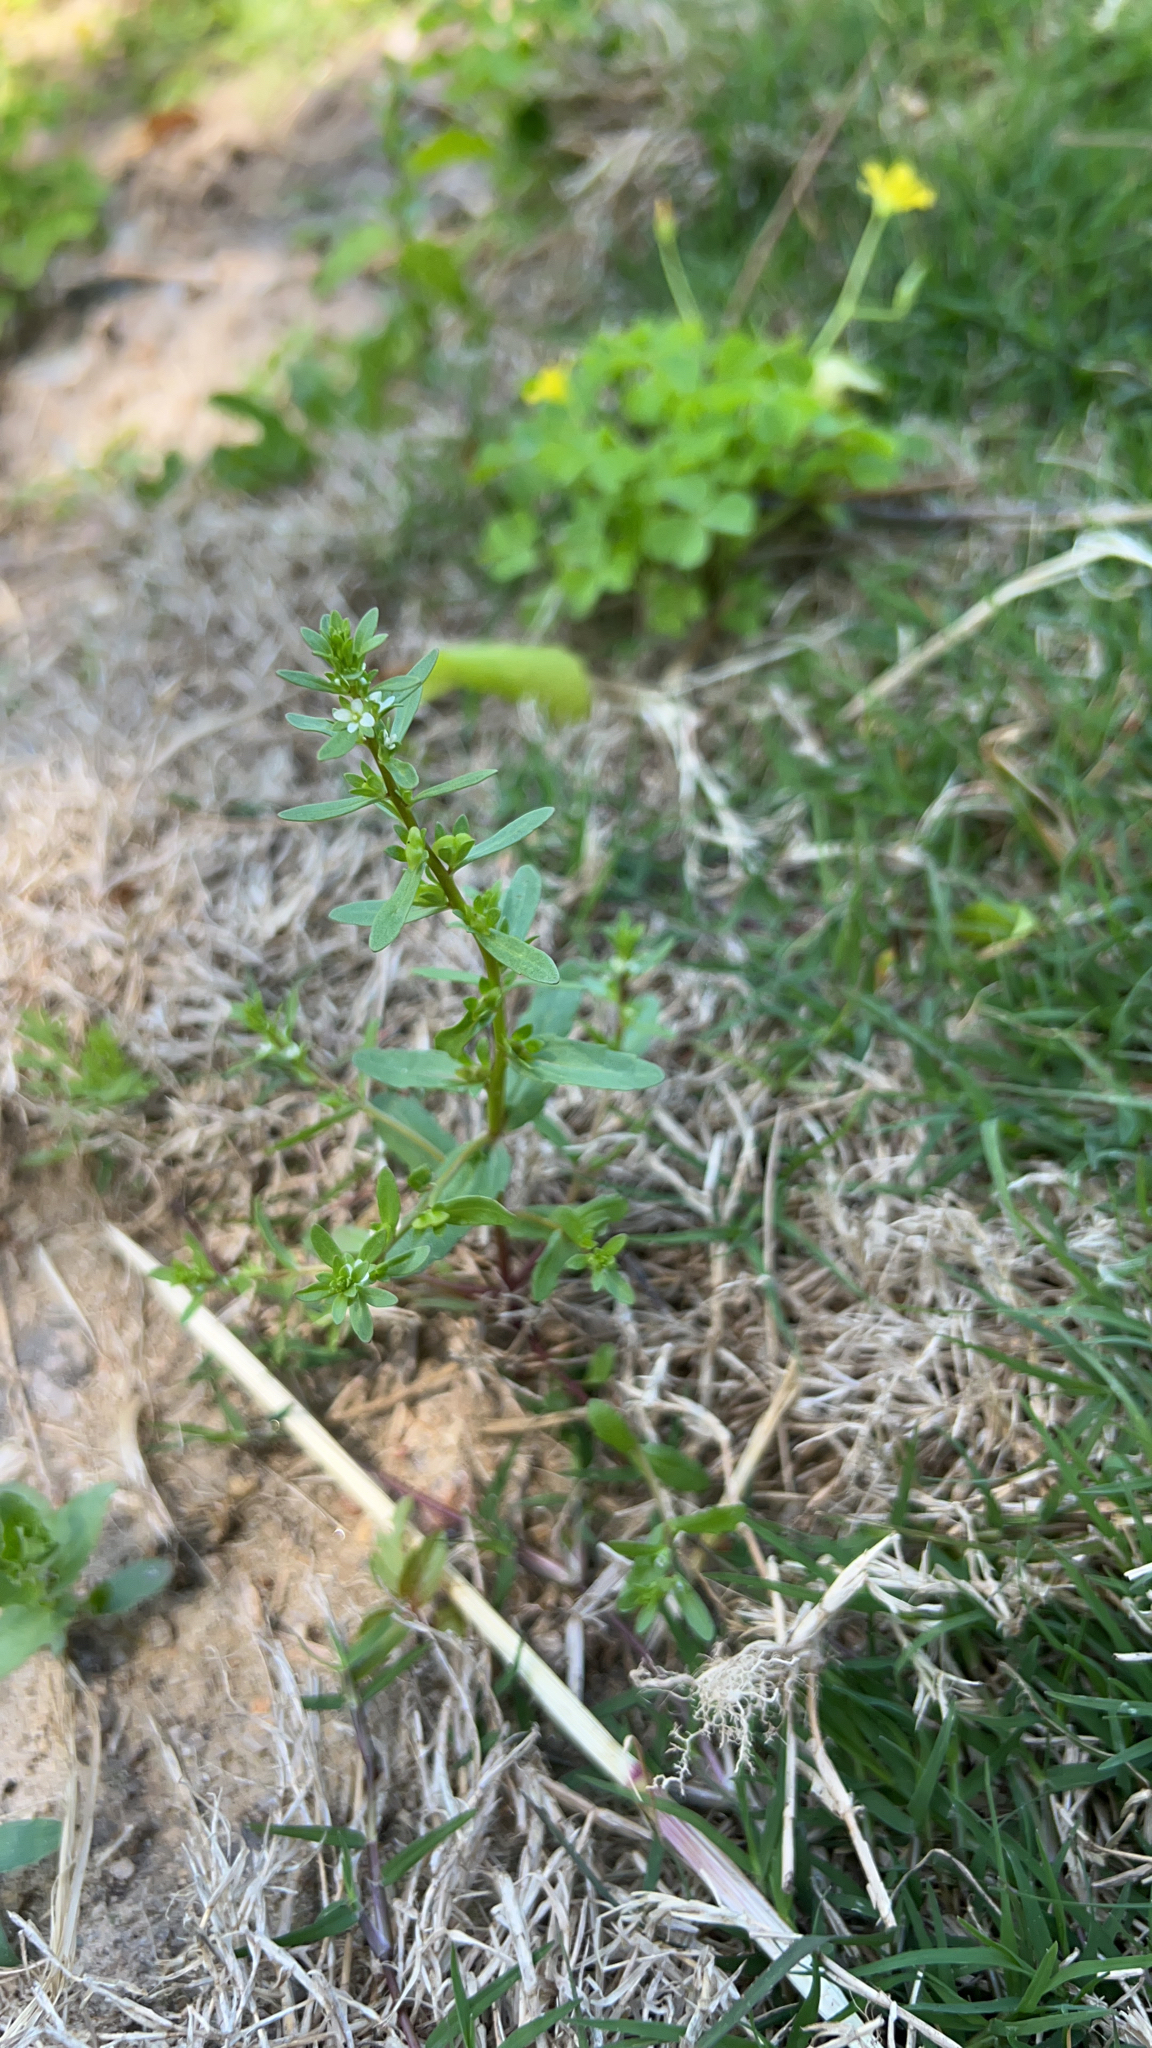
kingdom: Plantae
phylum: Tracheophyta
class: Magnoliopsida
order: Lamiales
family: Plantaginaceae
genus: Veronica
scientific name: Veronica peregrina
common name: Neckweed
